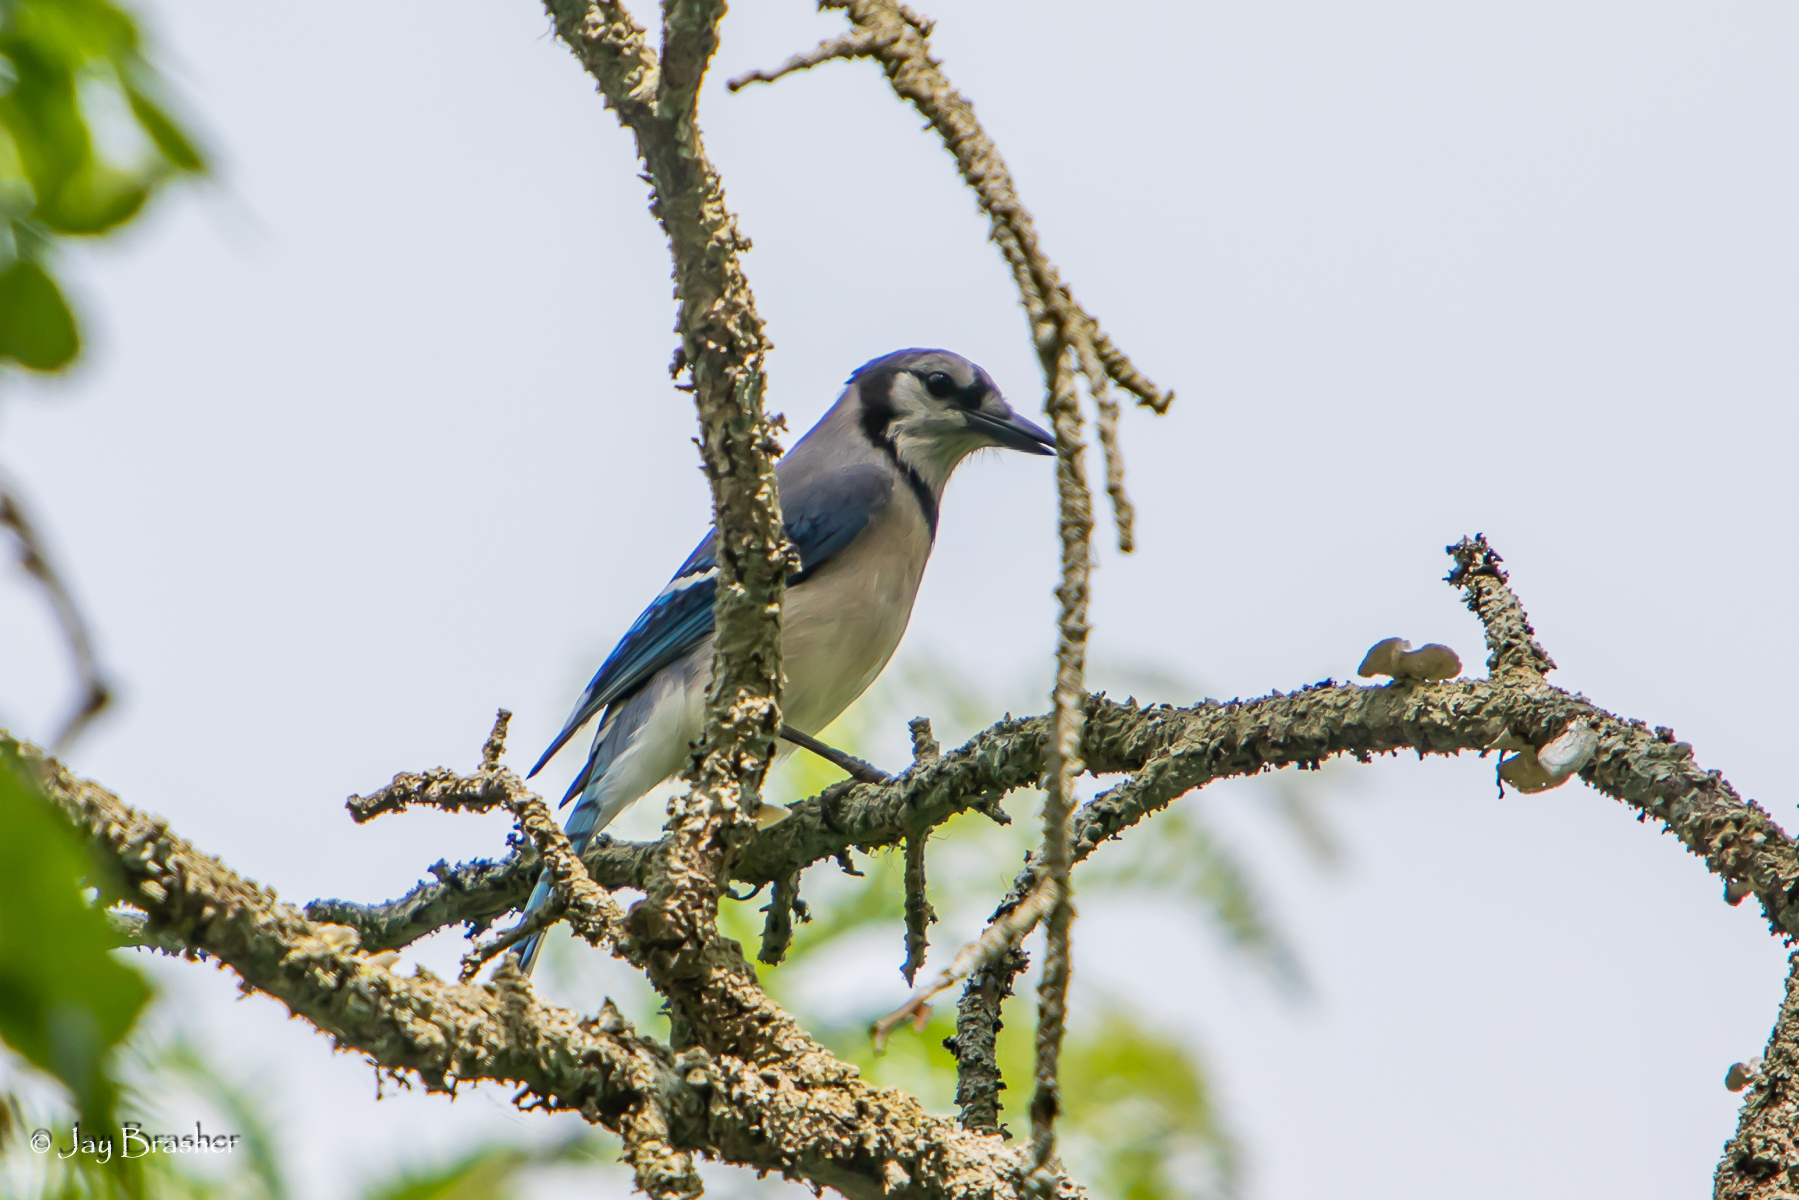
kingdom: Animalia
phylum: Chordata
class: Aves
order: Passeriformes
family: Corvidae
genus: Cyanocitta
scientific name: Cyanocitta cristata
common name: Blue jay
